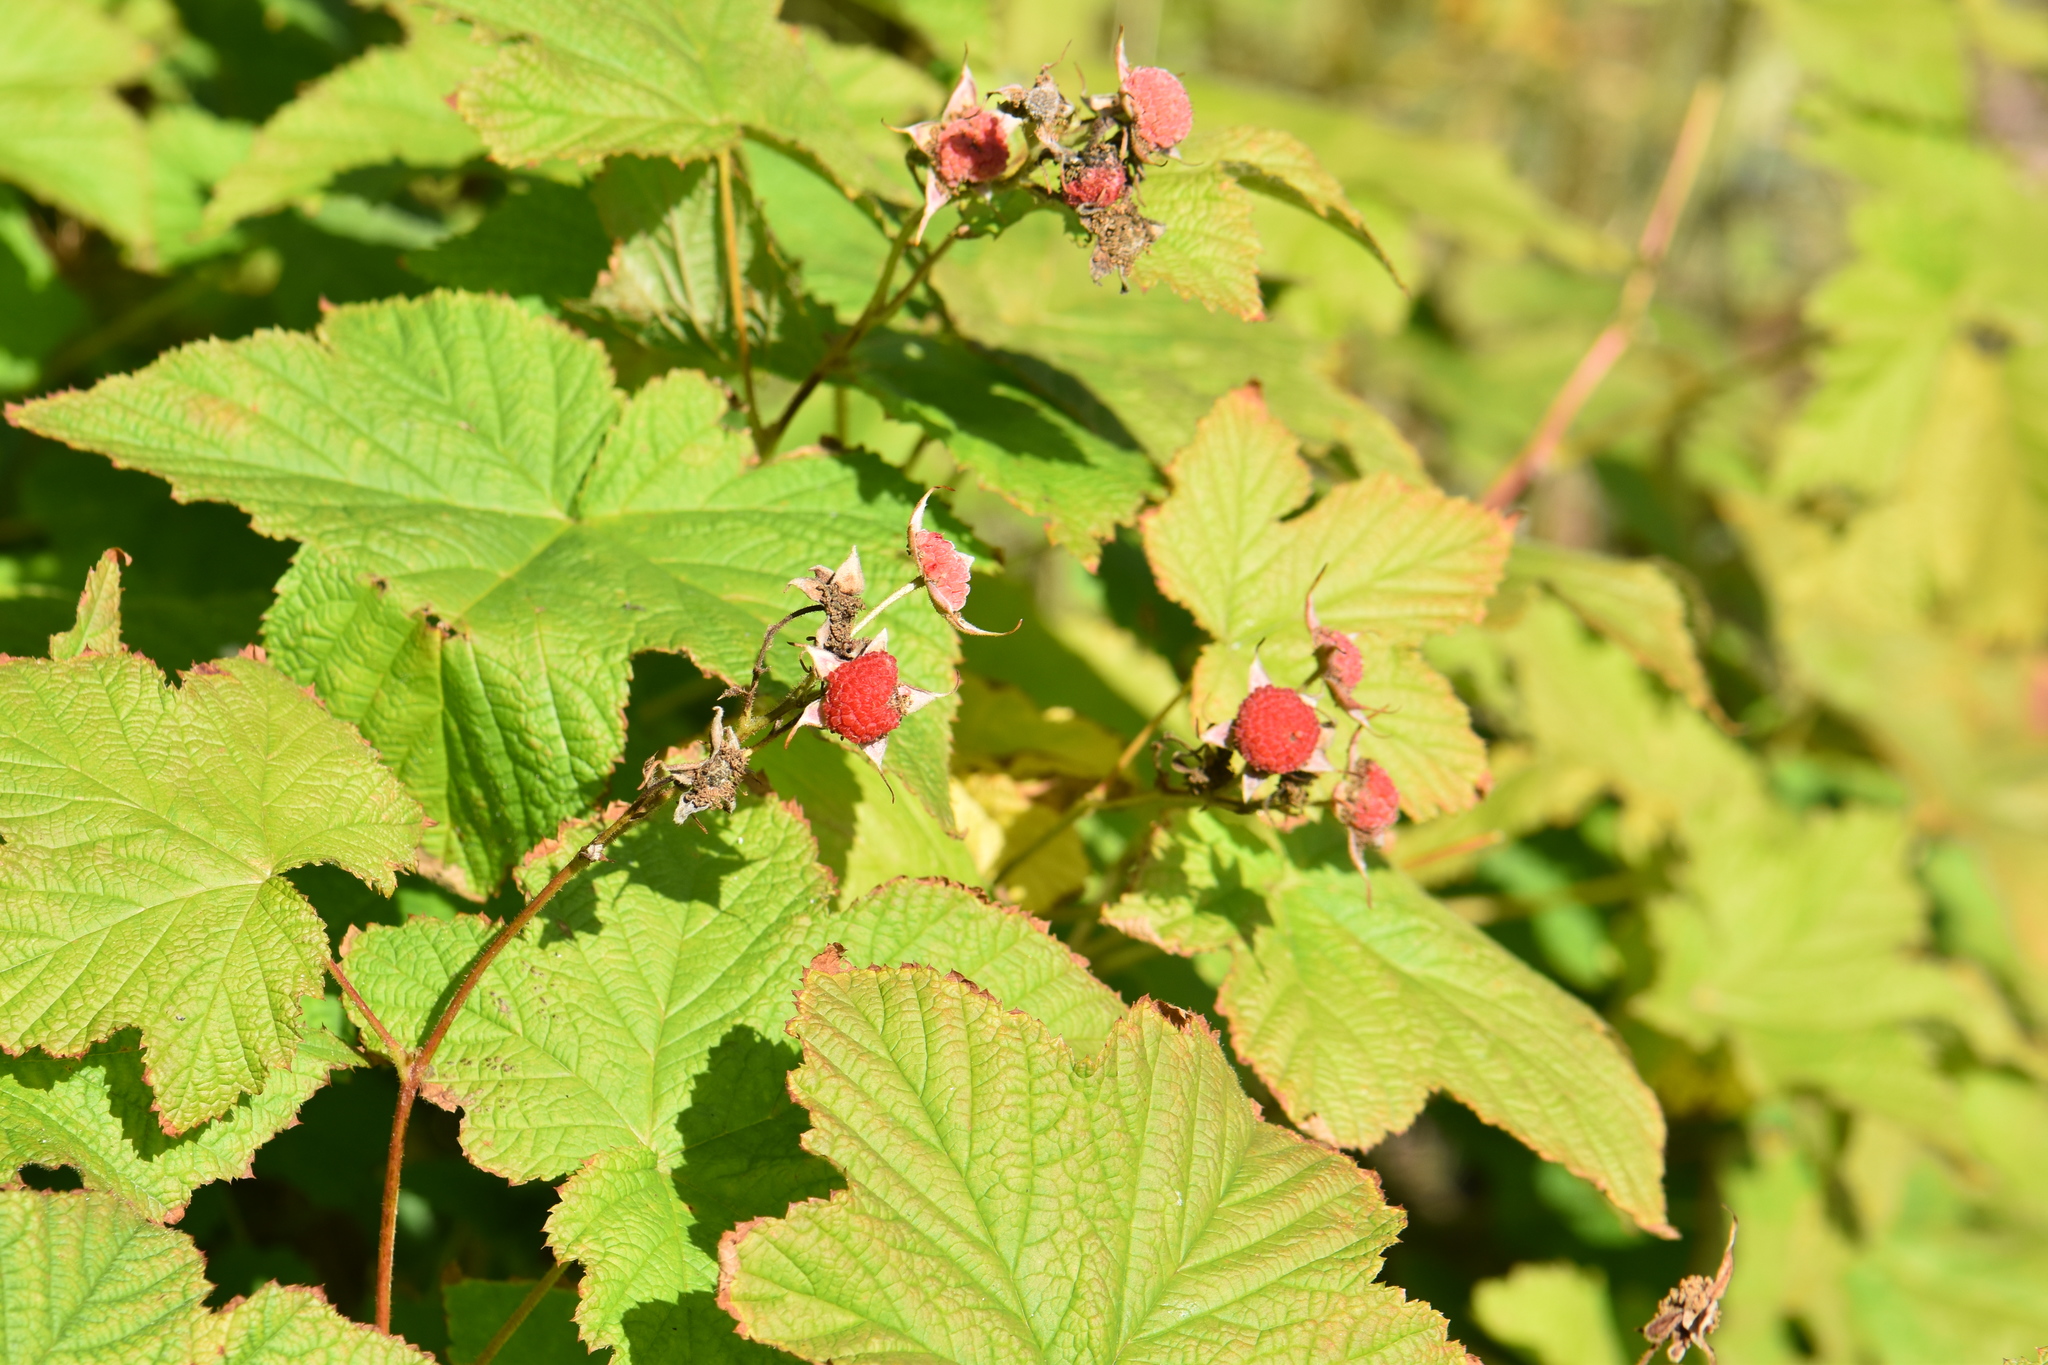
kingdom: Plantae
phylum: Tracheophyta
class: Magnoliopsida
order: Rosales
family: Rosaceae
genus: Rubus
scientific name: Rubus parviflorus
